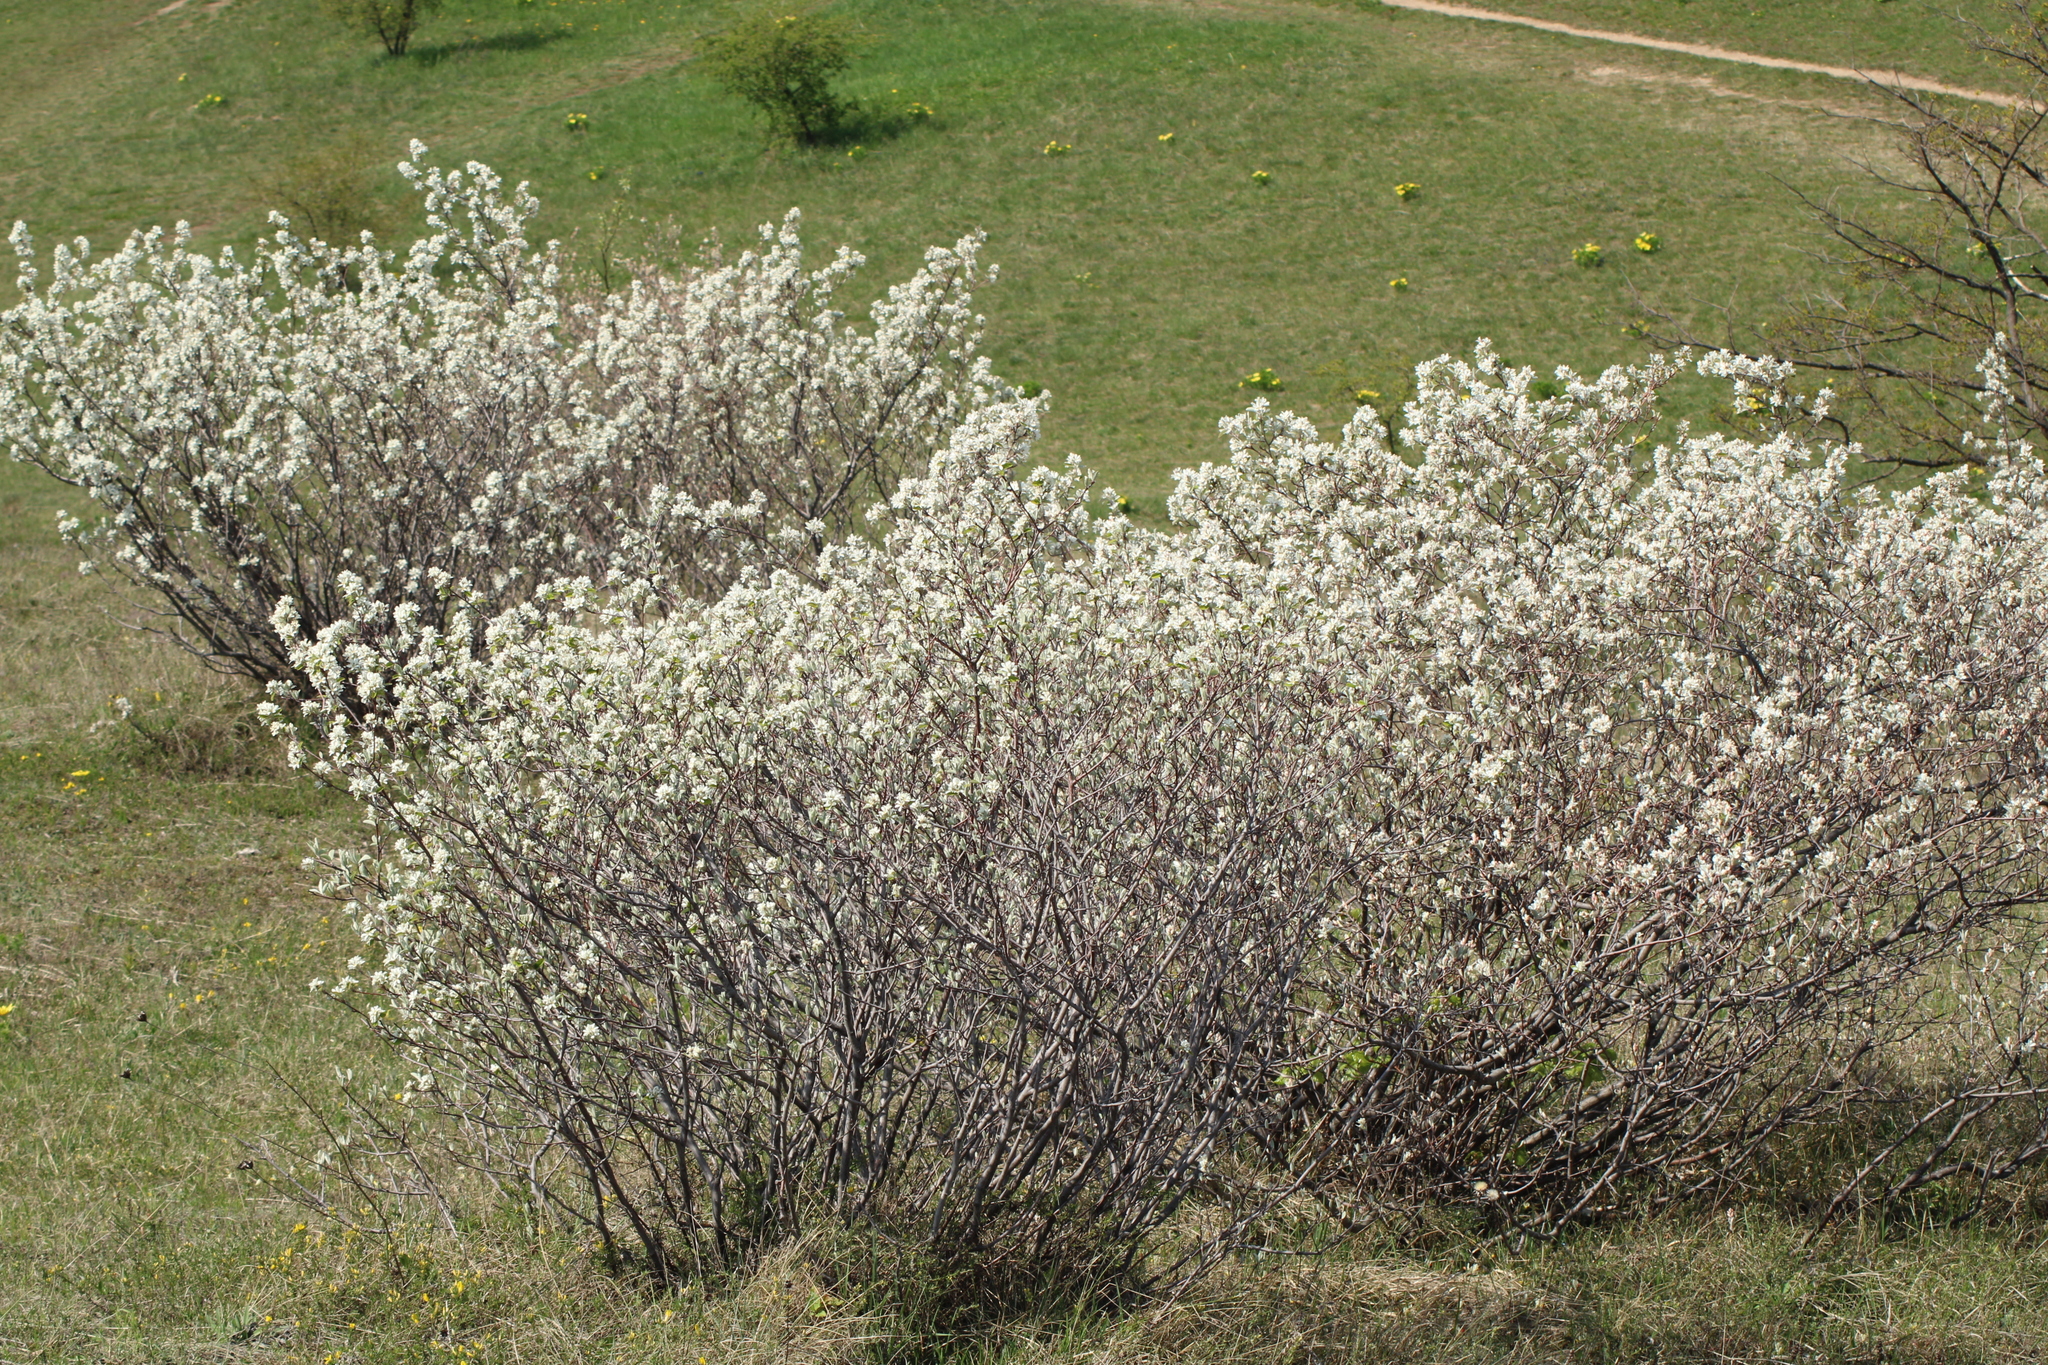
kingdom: Plantae
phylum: Tracheophyta
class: Magnoliopsida
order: Rosales
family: Rosaceae
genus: Amelanchier
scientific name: Amelanchier ovalis
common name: Serviceberry
